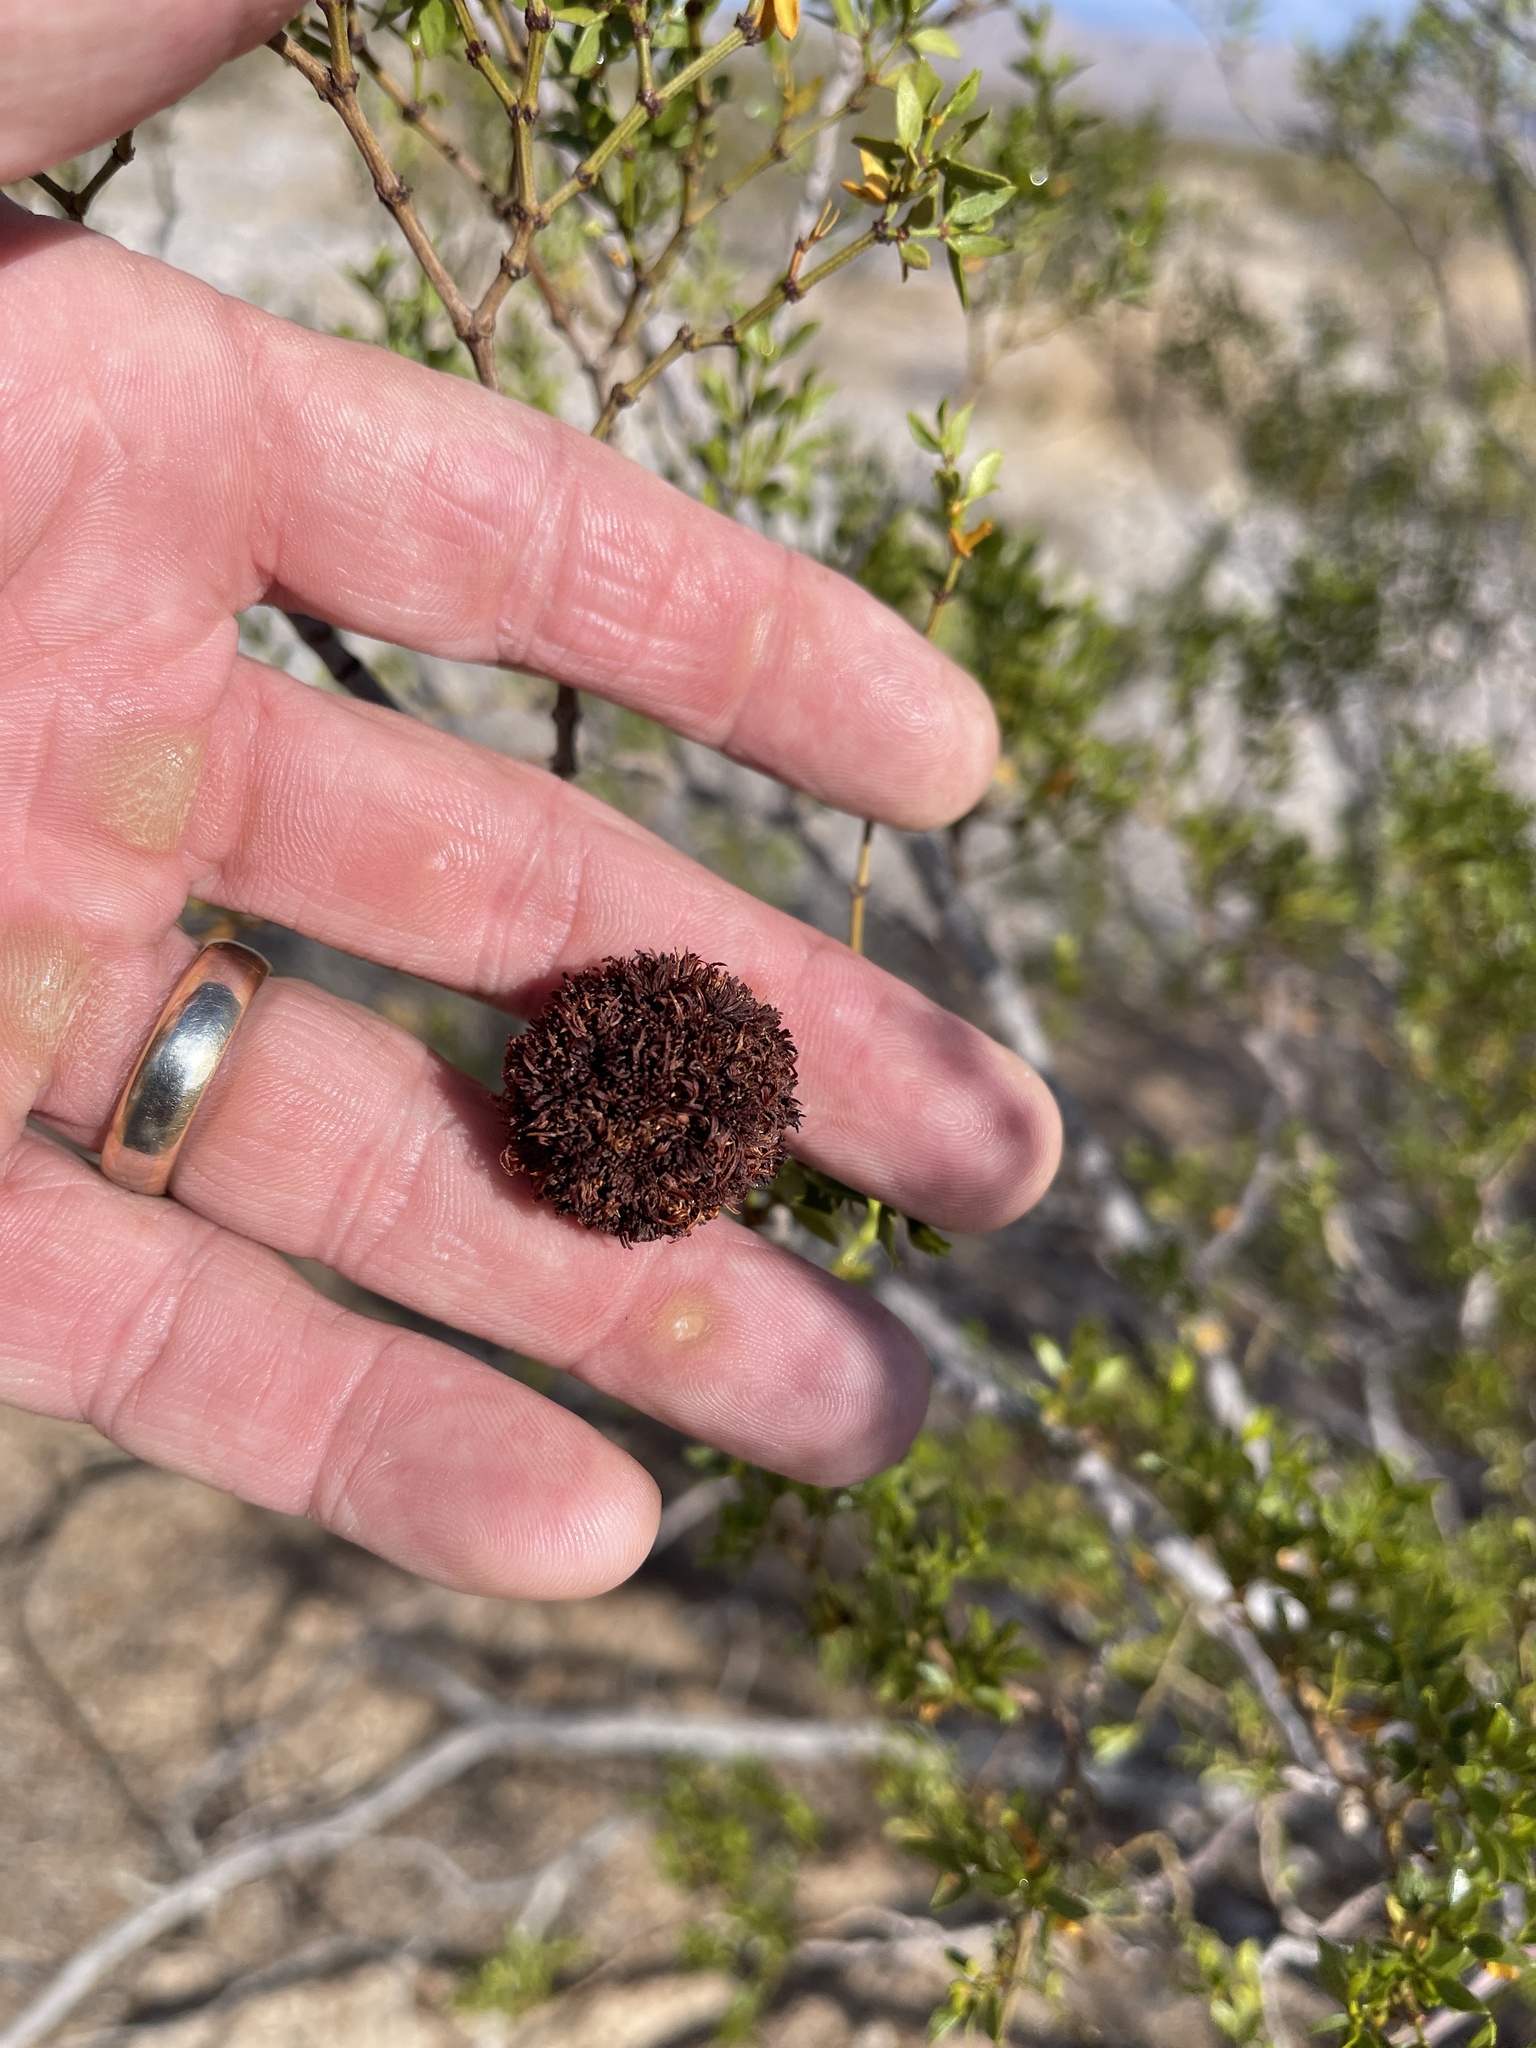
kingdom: Animalia
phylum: Arthropoda
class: Insecta
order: Diptera
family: Cecidomyiidae
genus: Asphondylia
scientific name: Asphondylia auripila
